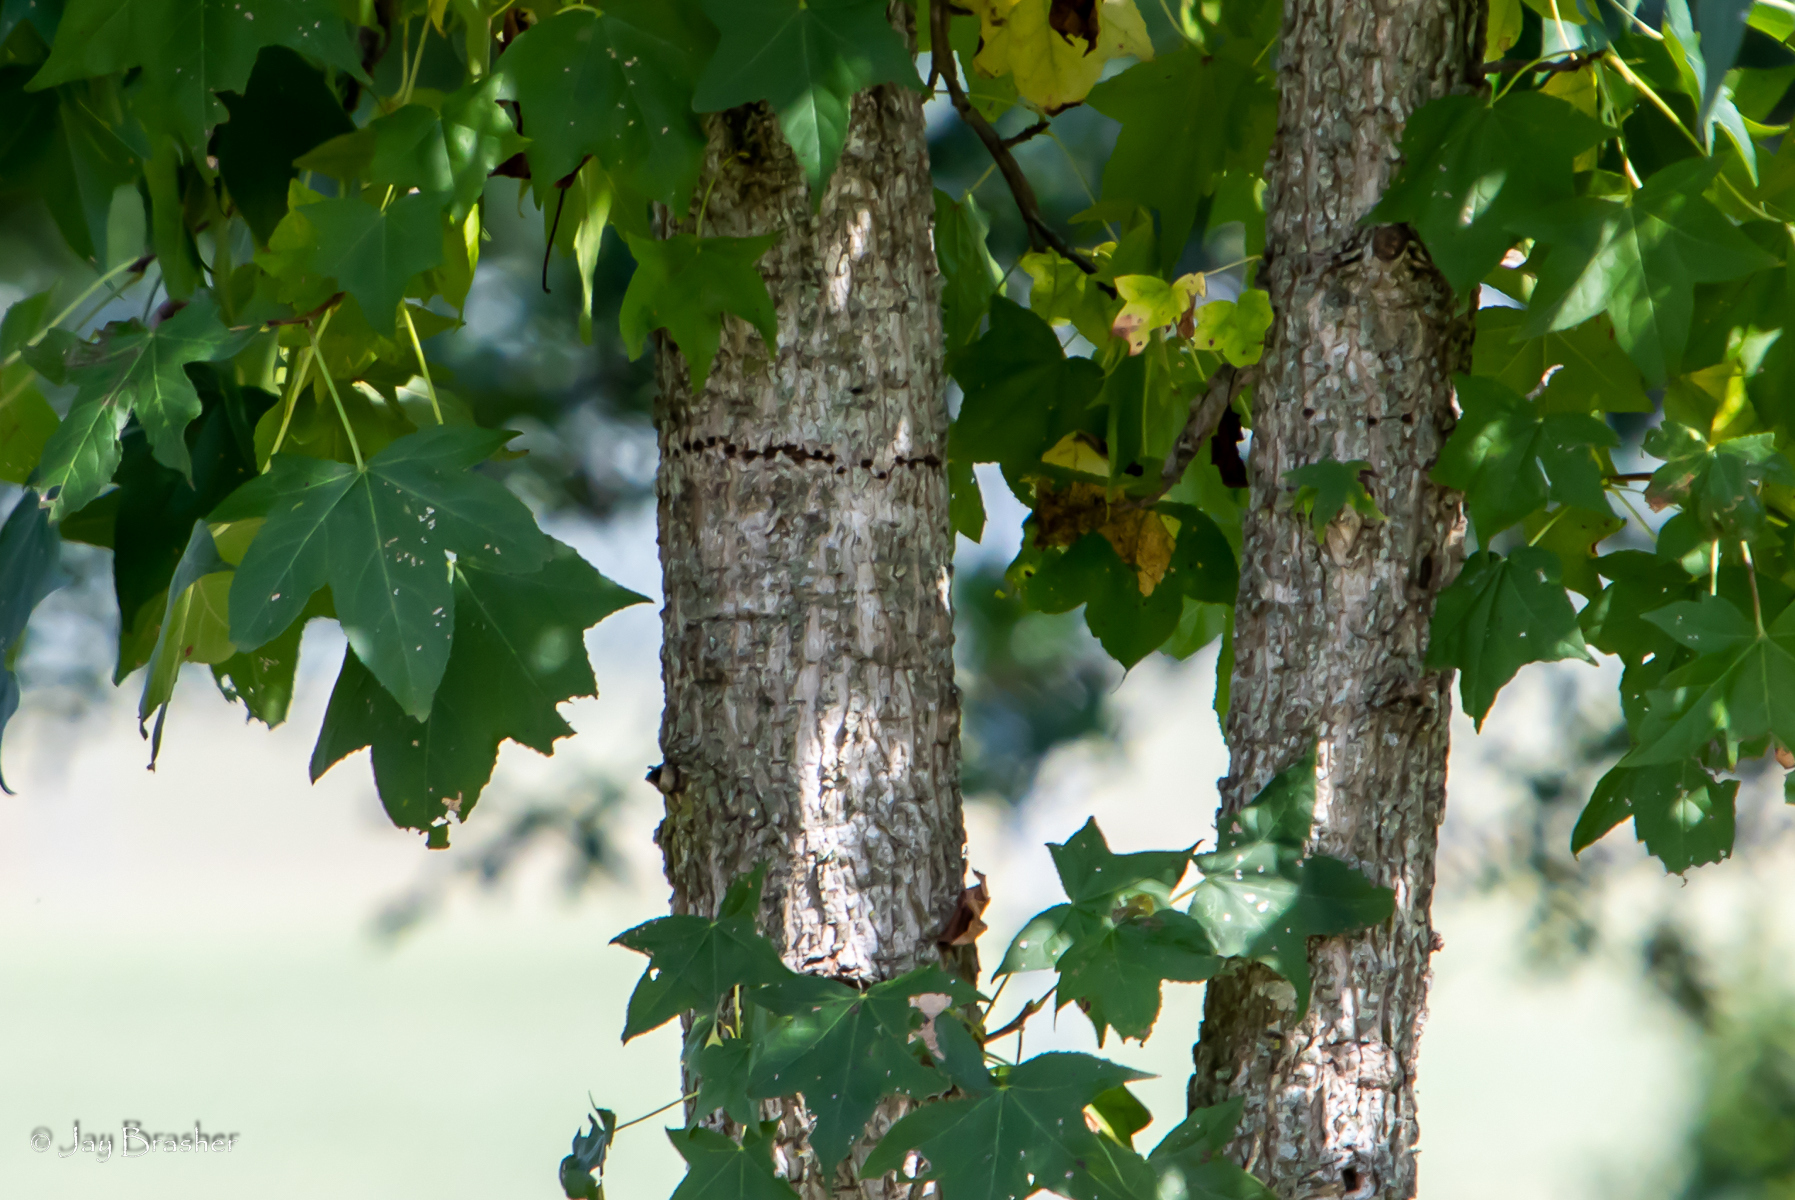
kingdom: Plantae
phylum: Tracheophyta
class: Magnoliopsida
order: Saxifragales
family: Altingiaceae
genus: Liquidambar
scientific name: Liquidambar styraciflua
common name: Sweet gum
